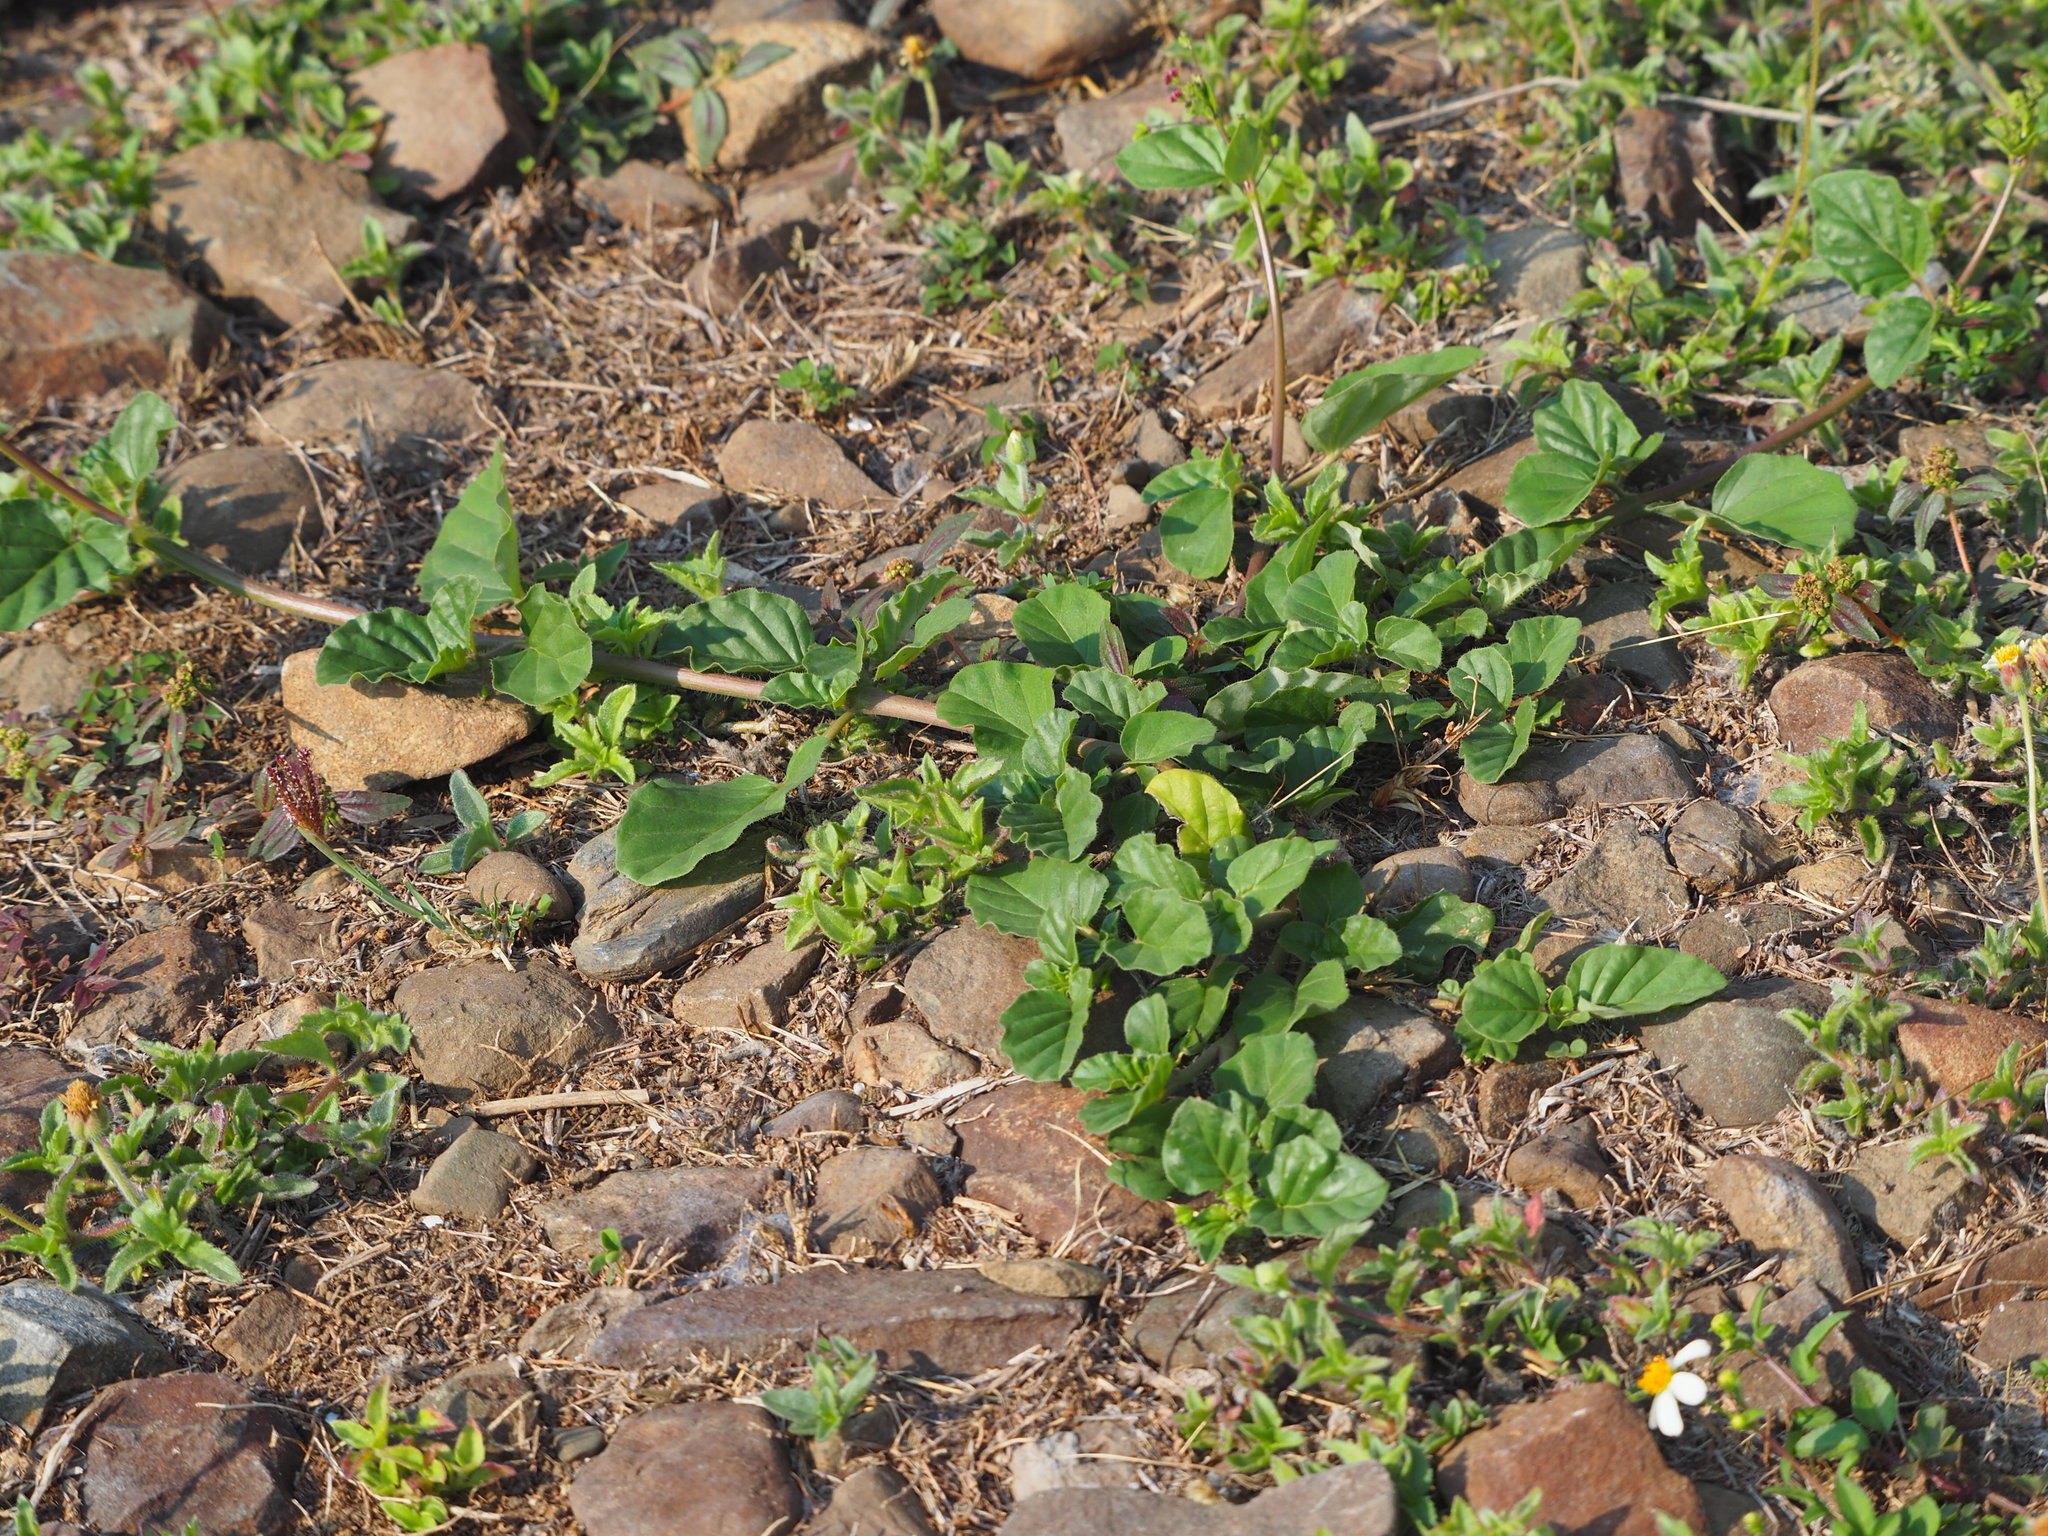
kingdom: Plantae
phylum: Tracheophyta
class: Magnoliopsida
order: Caryophyllales
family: Nyctaginaceae
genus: Boerhavia
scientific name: Boerhavia coccinea
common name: Scarlet spiderling
